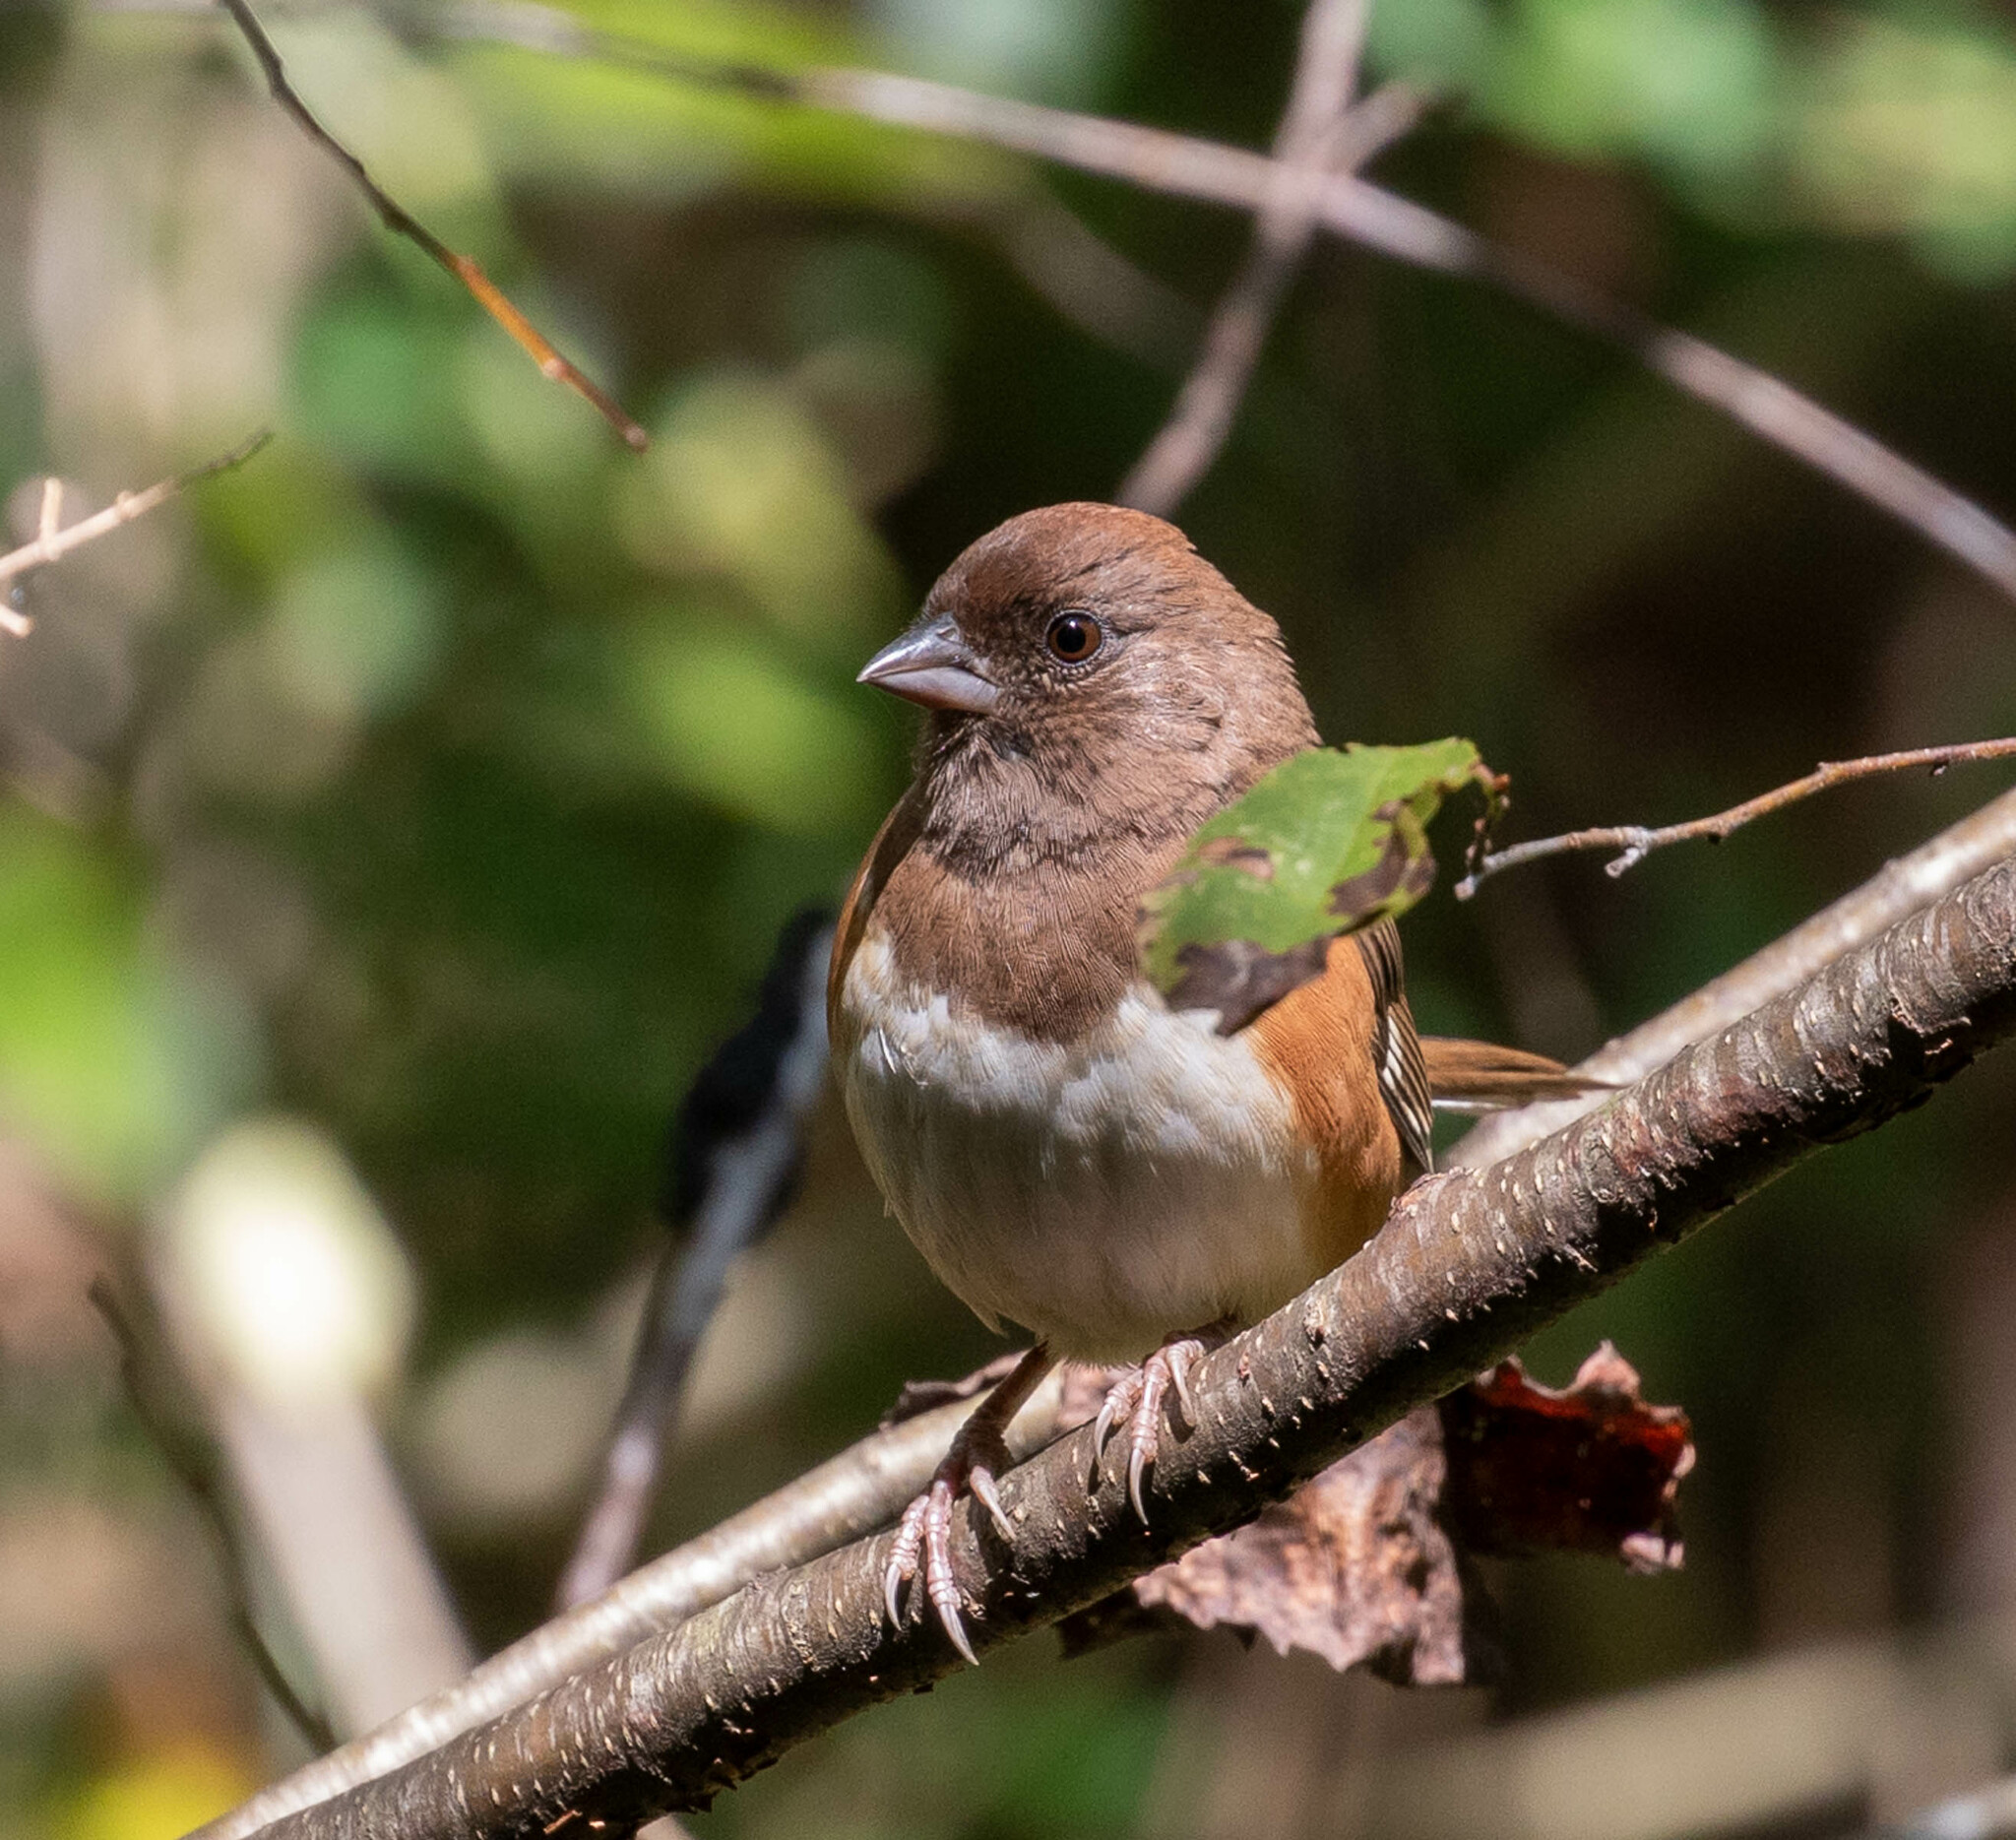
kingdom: Animalia
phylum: Chordata
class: Aves
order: Passeriformes
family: Passerellidae
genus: Pipilo
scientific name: Pipilo erythrophthalmus
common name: Eastern towhee
